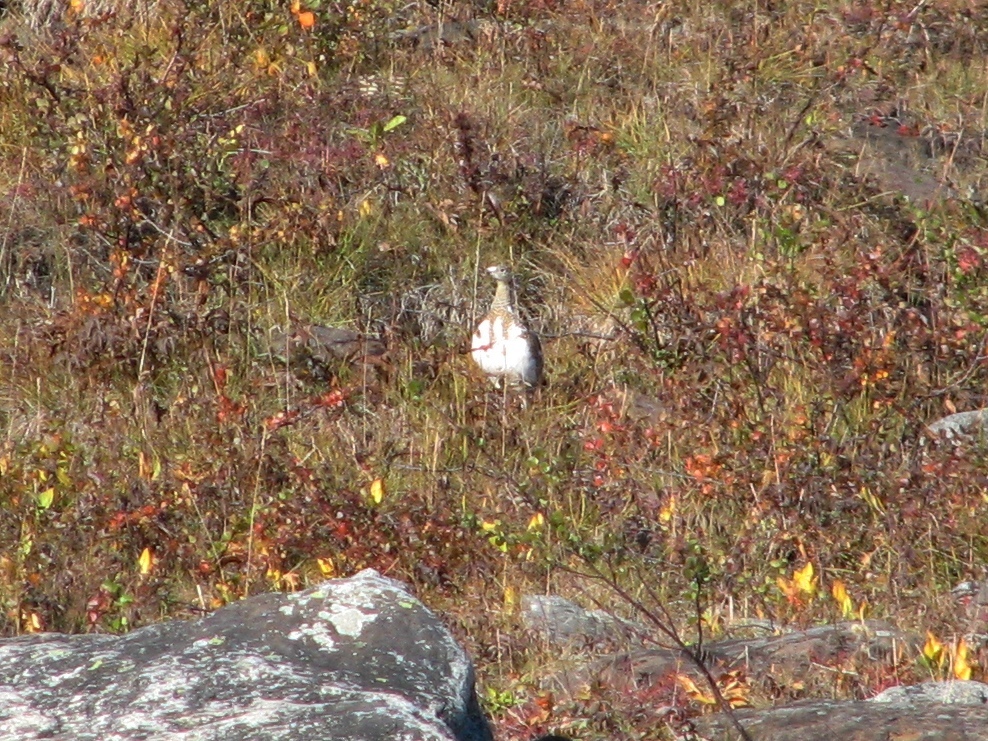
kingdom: Animalia
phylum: Chordata
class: Aves
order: Galliformes
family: Phasianidae
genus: Lagopus
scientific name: Lagopus lagopus
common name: Willow ptarmigan
